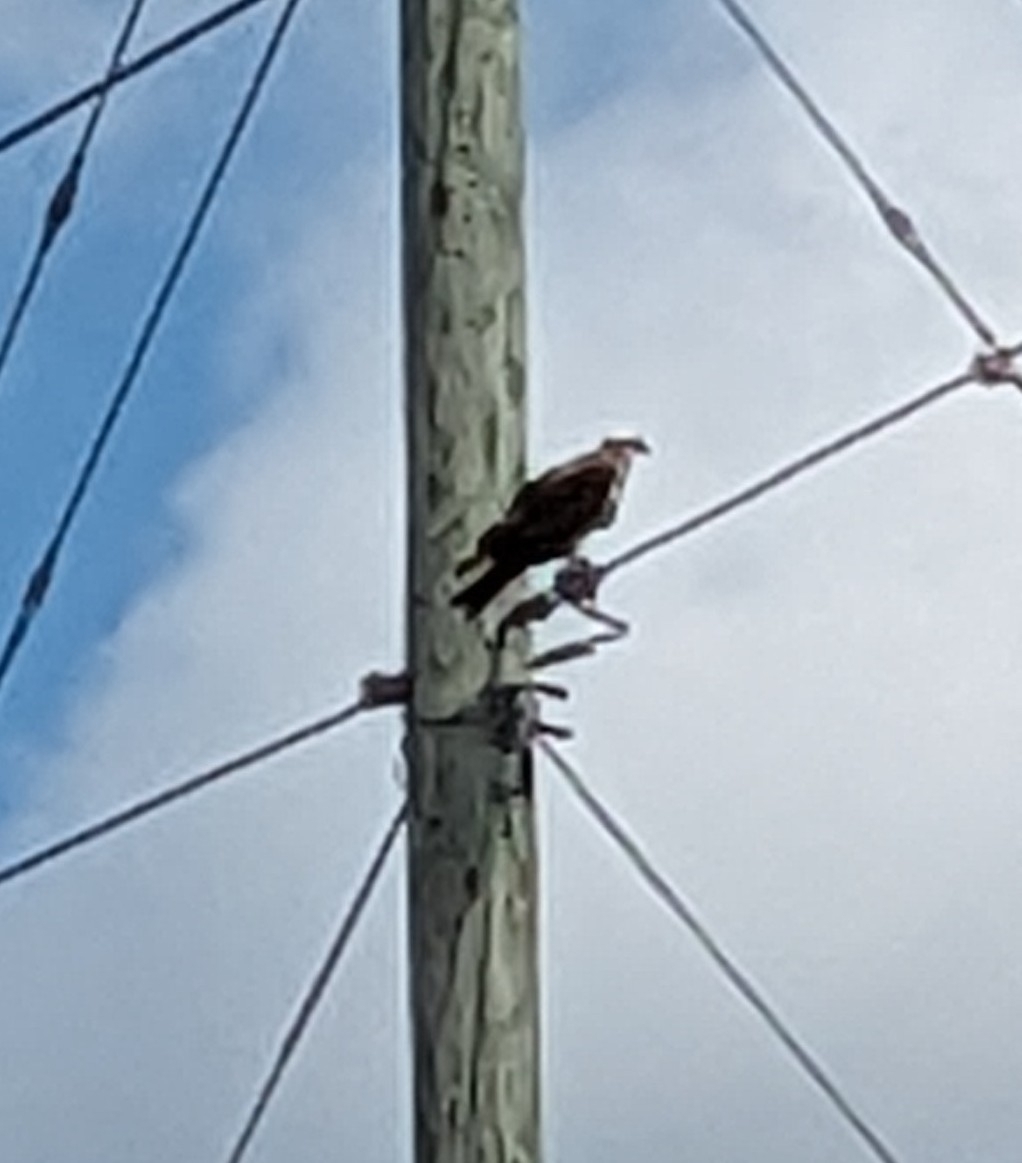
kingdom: Animalia
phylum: Chordata
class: Aves
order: Accipitriformes
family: Pandionidae
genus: Pandion
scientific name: Pandion haliaetus
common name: Osprey
